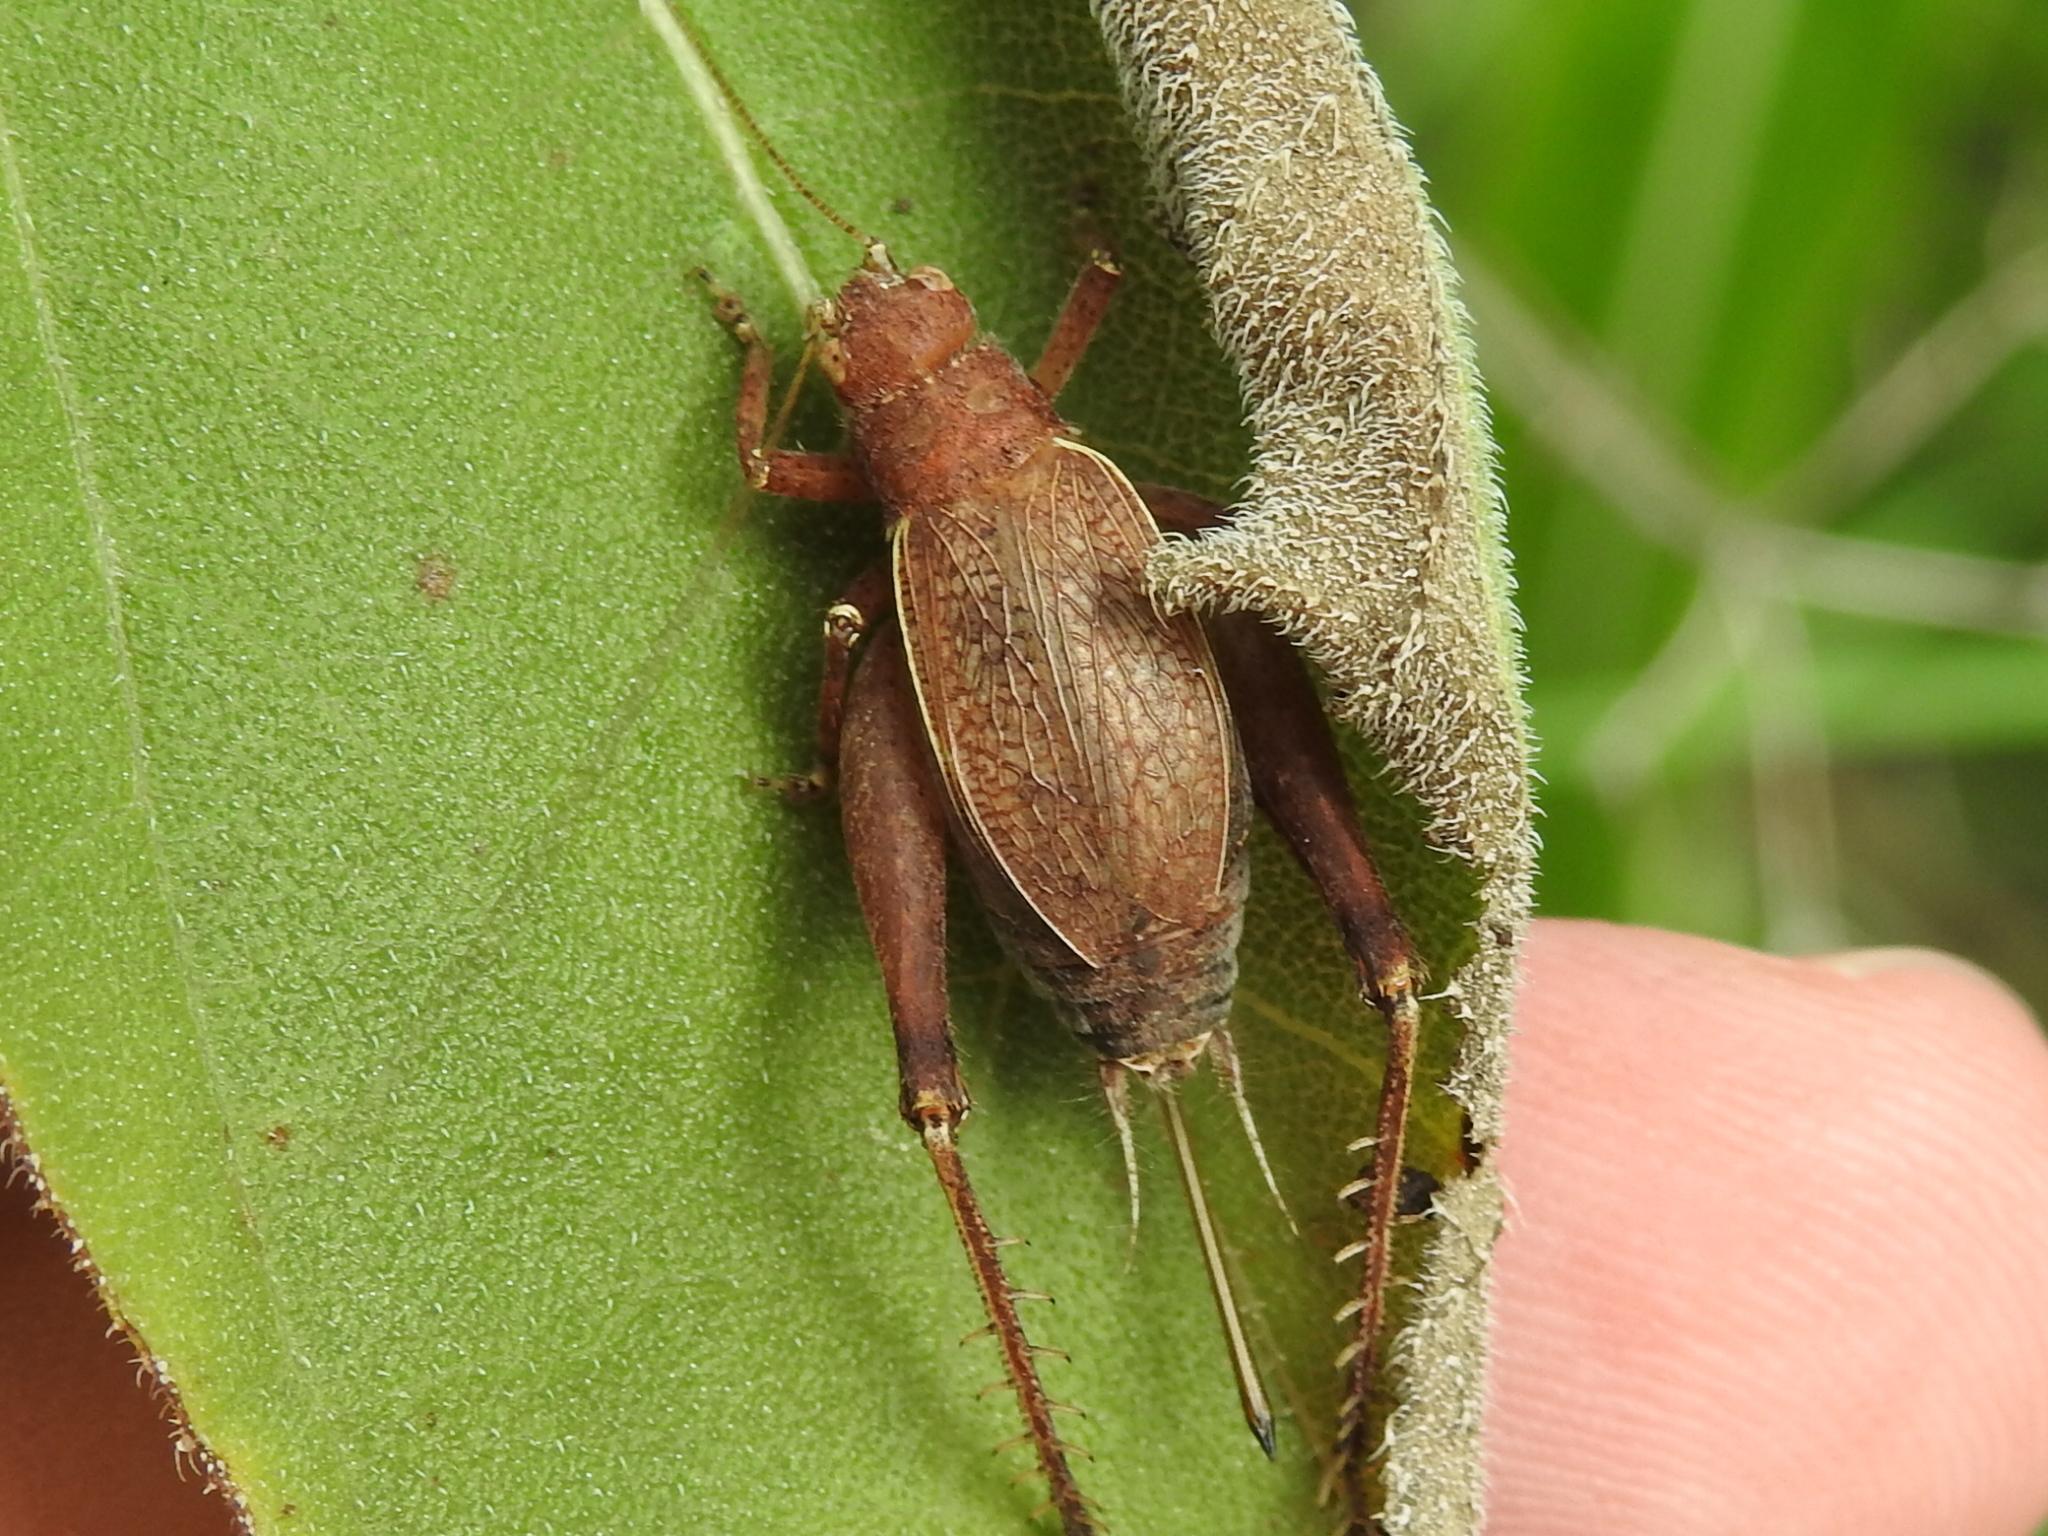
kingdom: Animalia
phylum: Arthropoda
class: Insecta
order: Orthoptera
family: Gryllidae
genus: Hapithus
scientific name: Hapithus agitator
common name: Restless bush cricket
